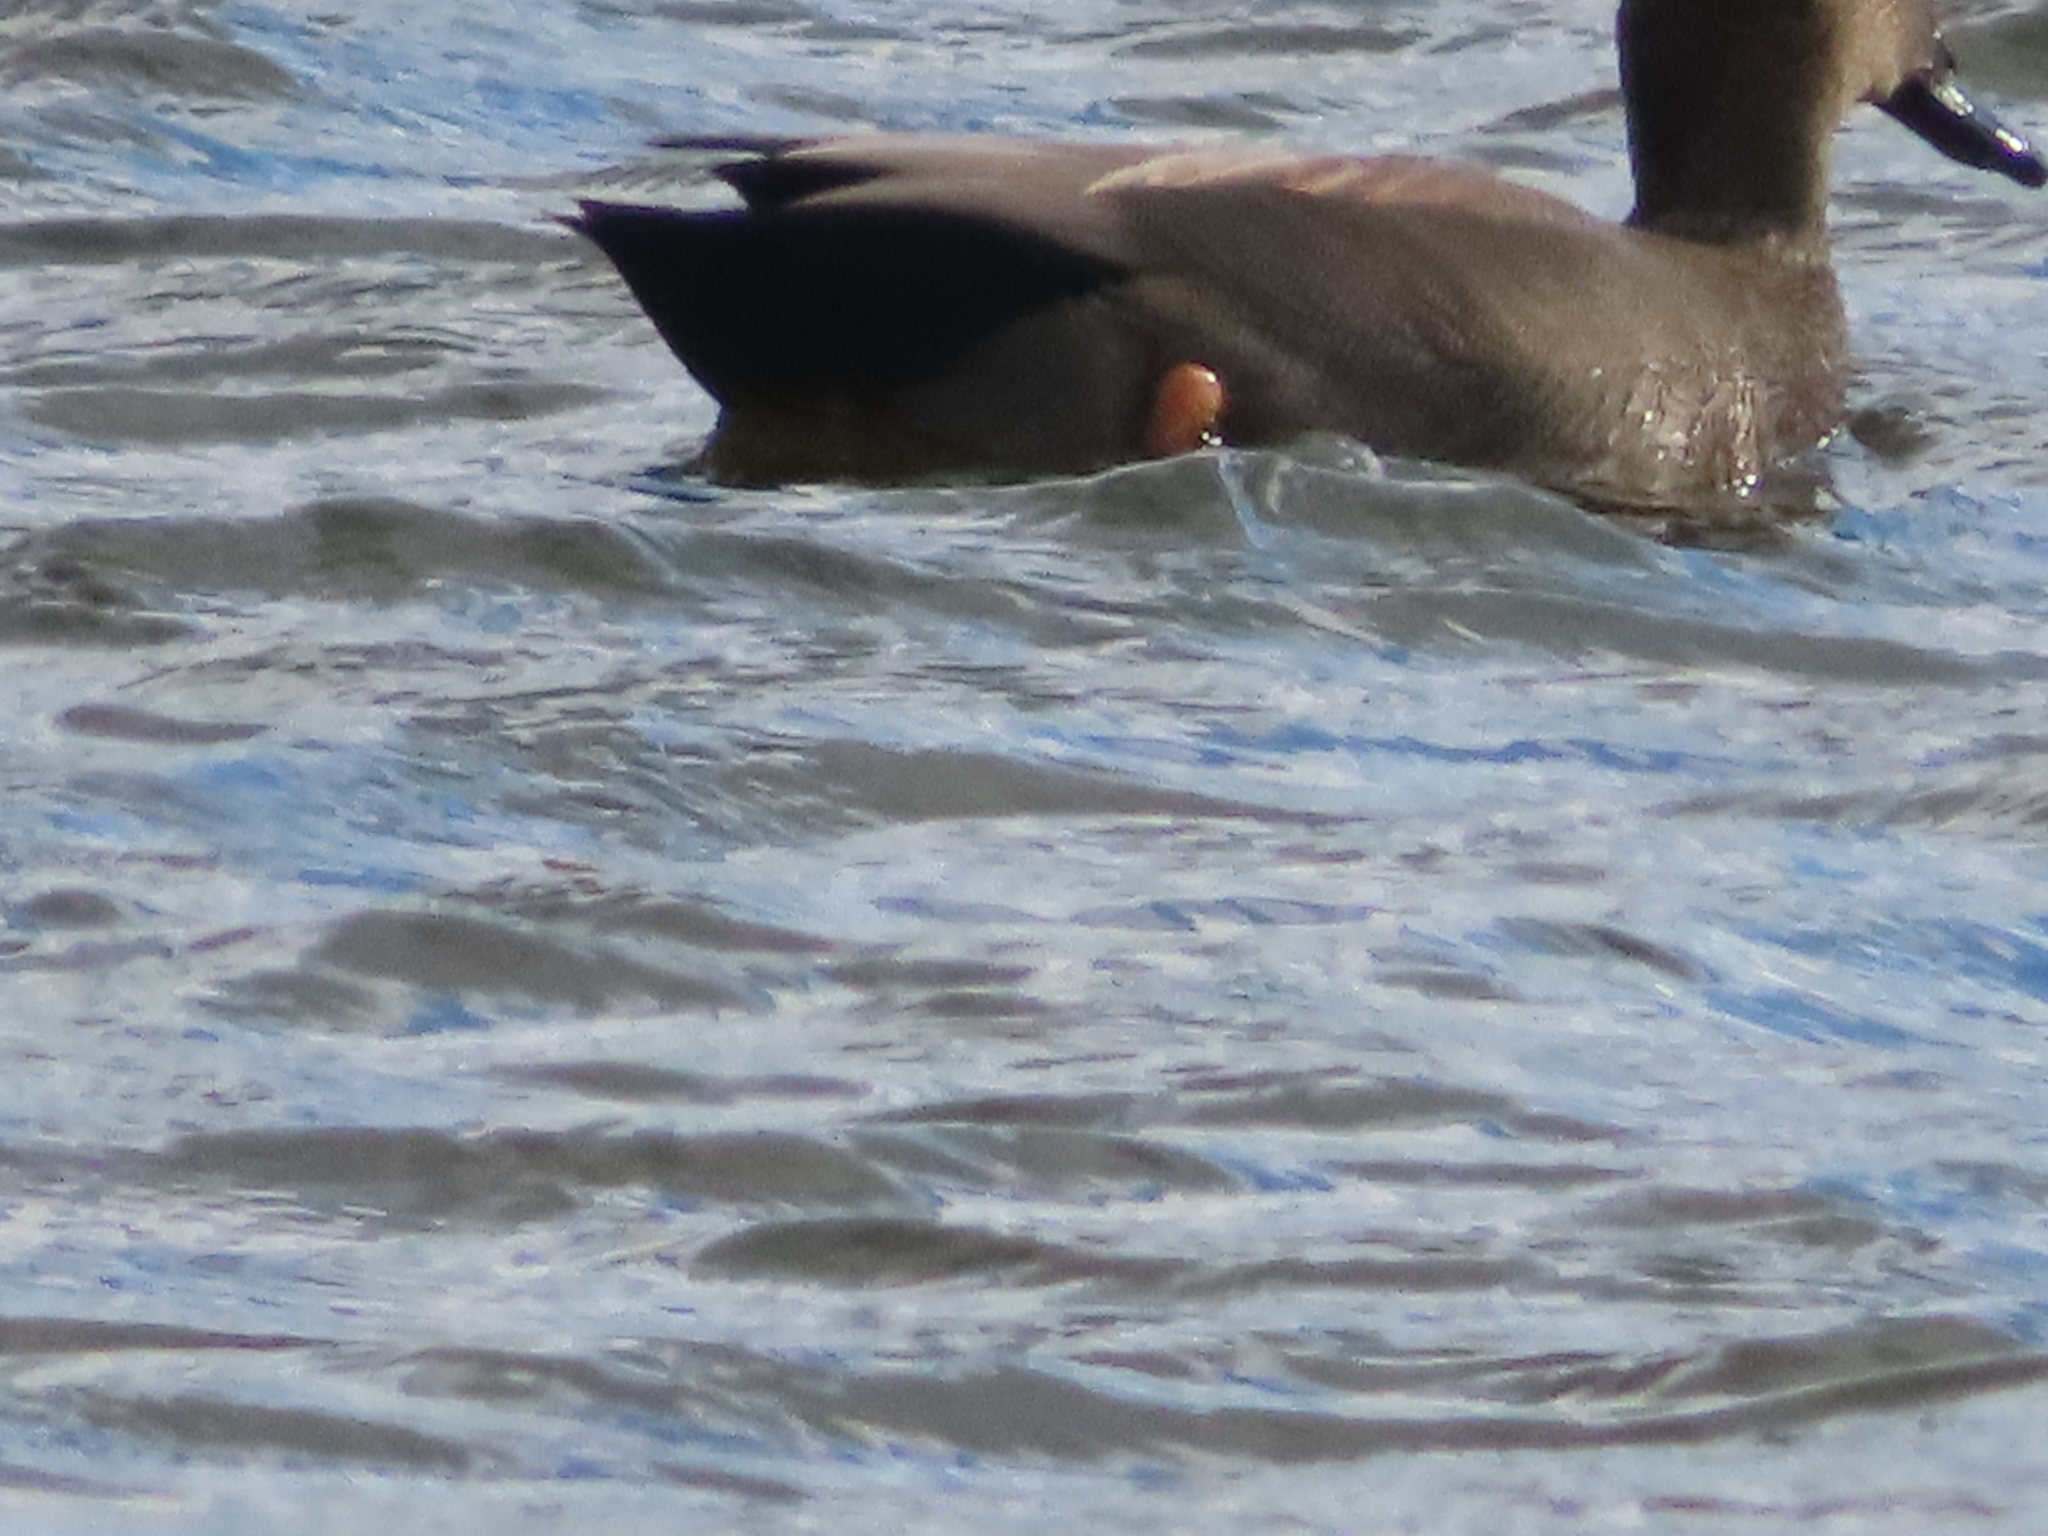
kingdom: Animalia
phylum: Chordata
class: Aves
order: Anseriformes
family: Anatidae
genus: Mareca
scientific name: Mareca strepera
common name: Gadwall
